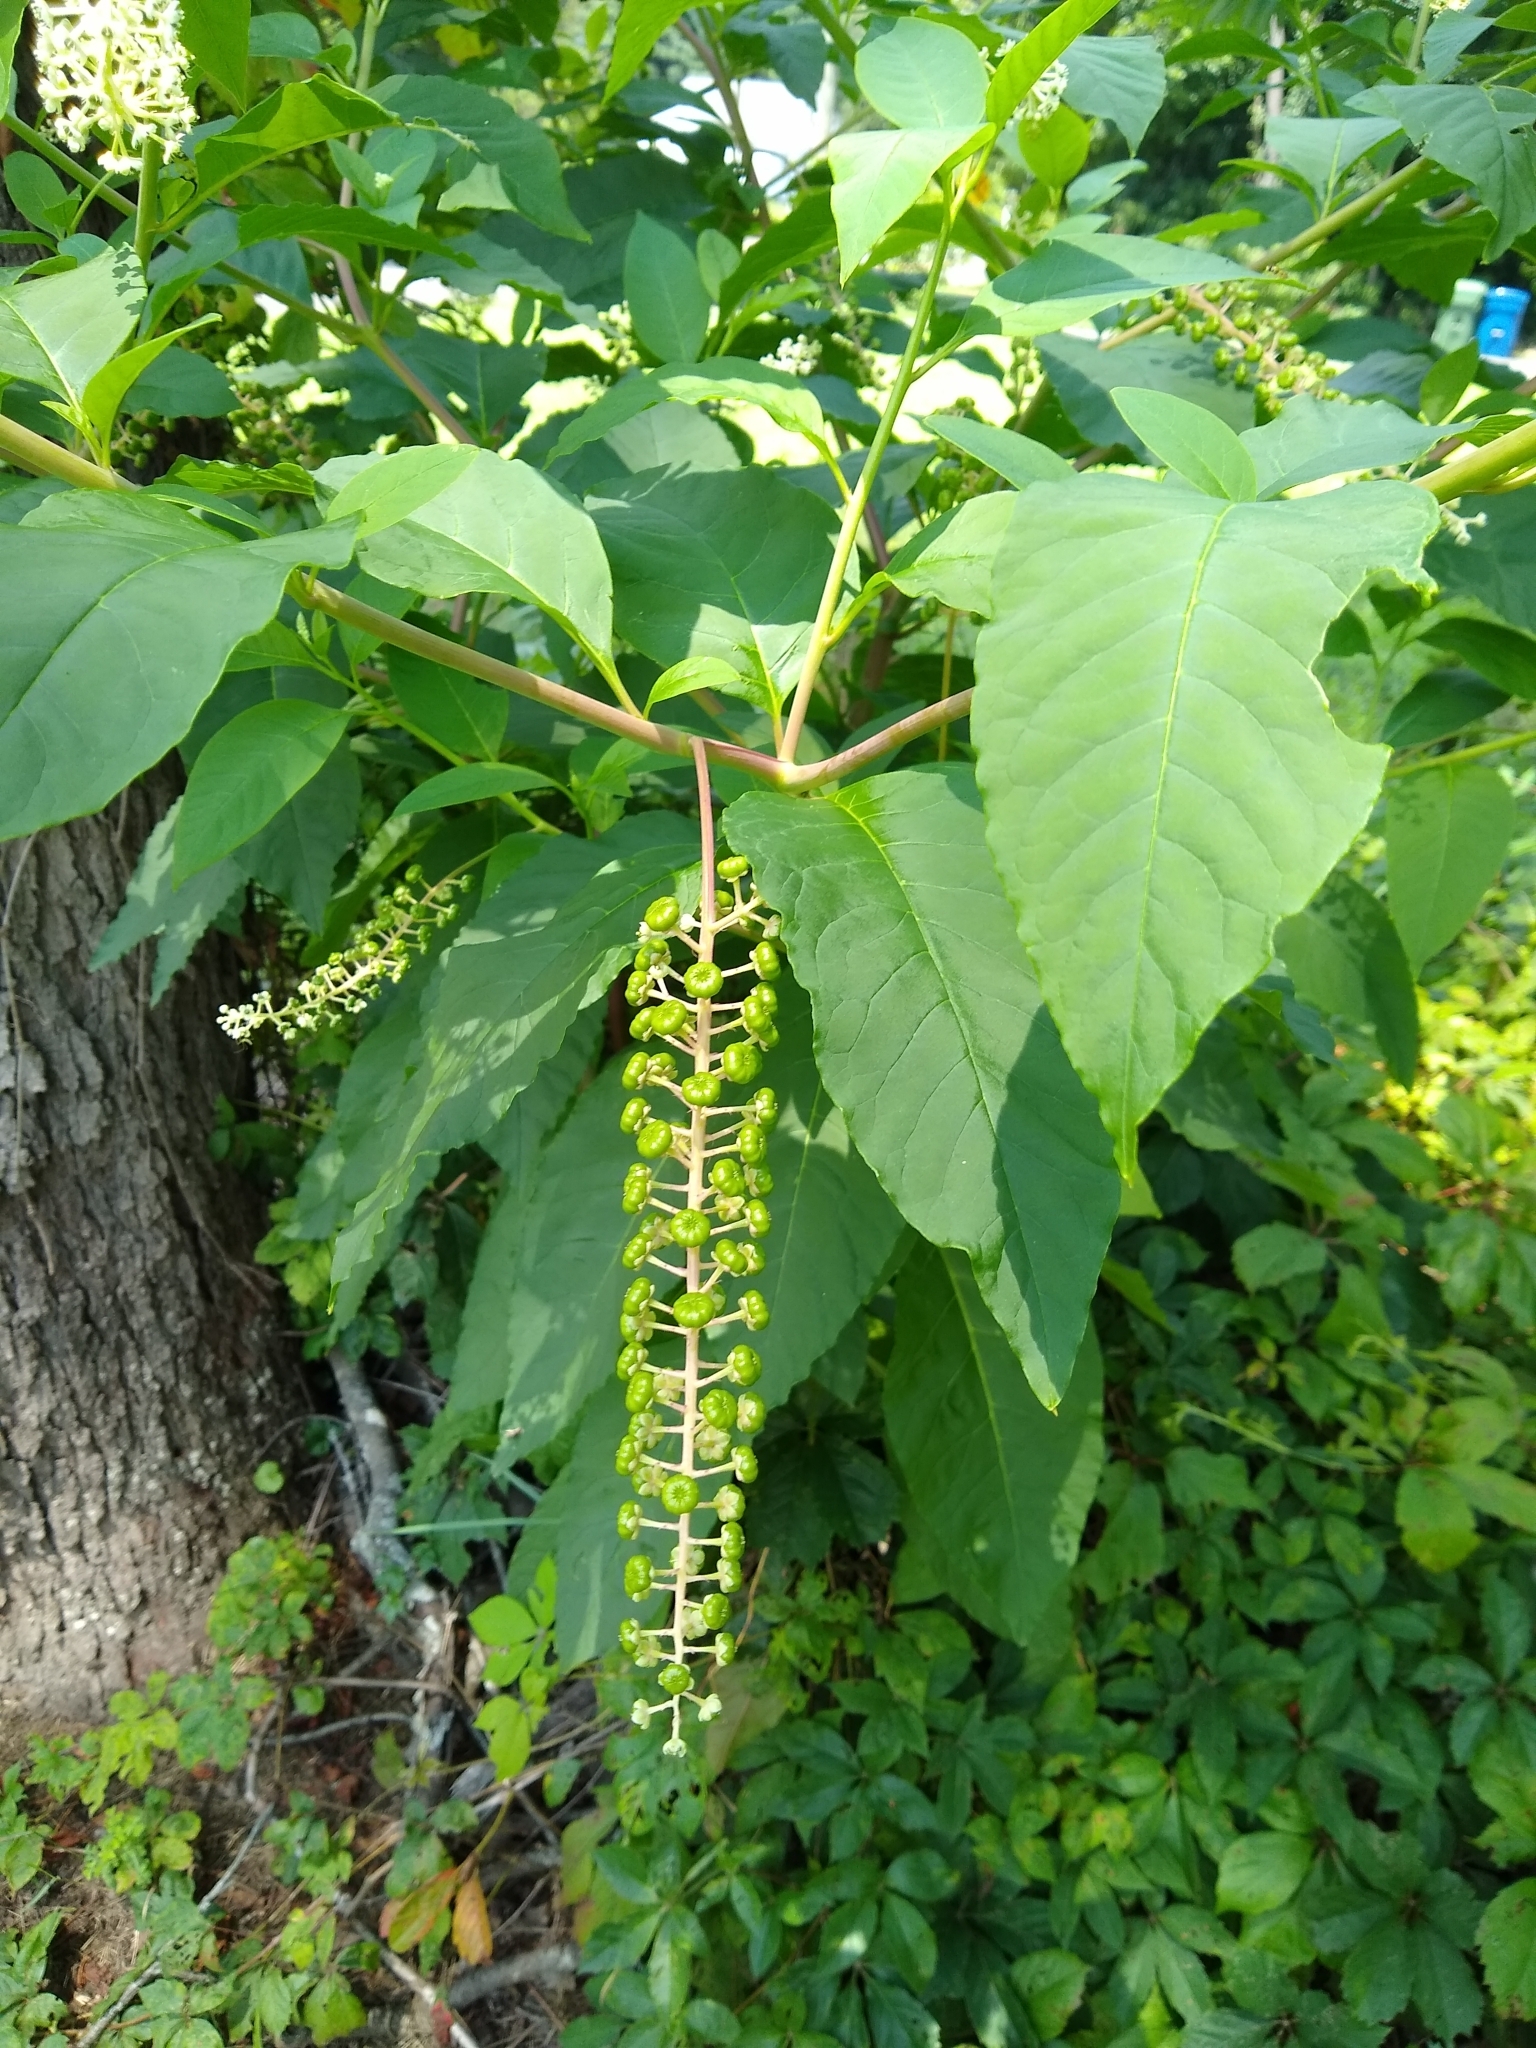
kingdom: Plantae
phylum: Tracheophyta
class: Magnoliopsida
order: Caryophyllales
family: Phytolaccaceae
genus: Phytolacca
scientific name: Phytolacca americana
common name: American pokeweed
